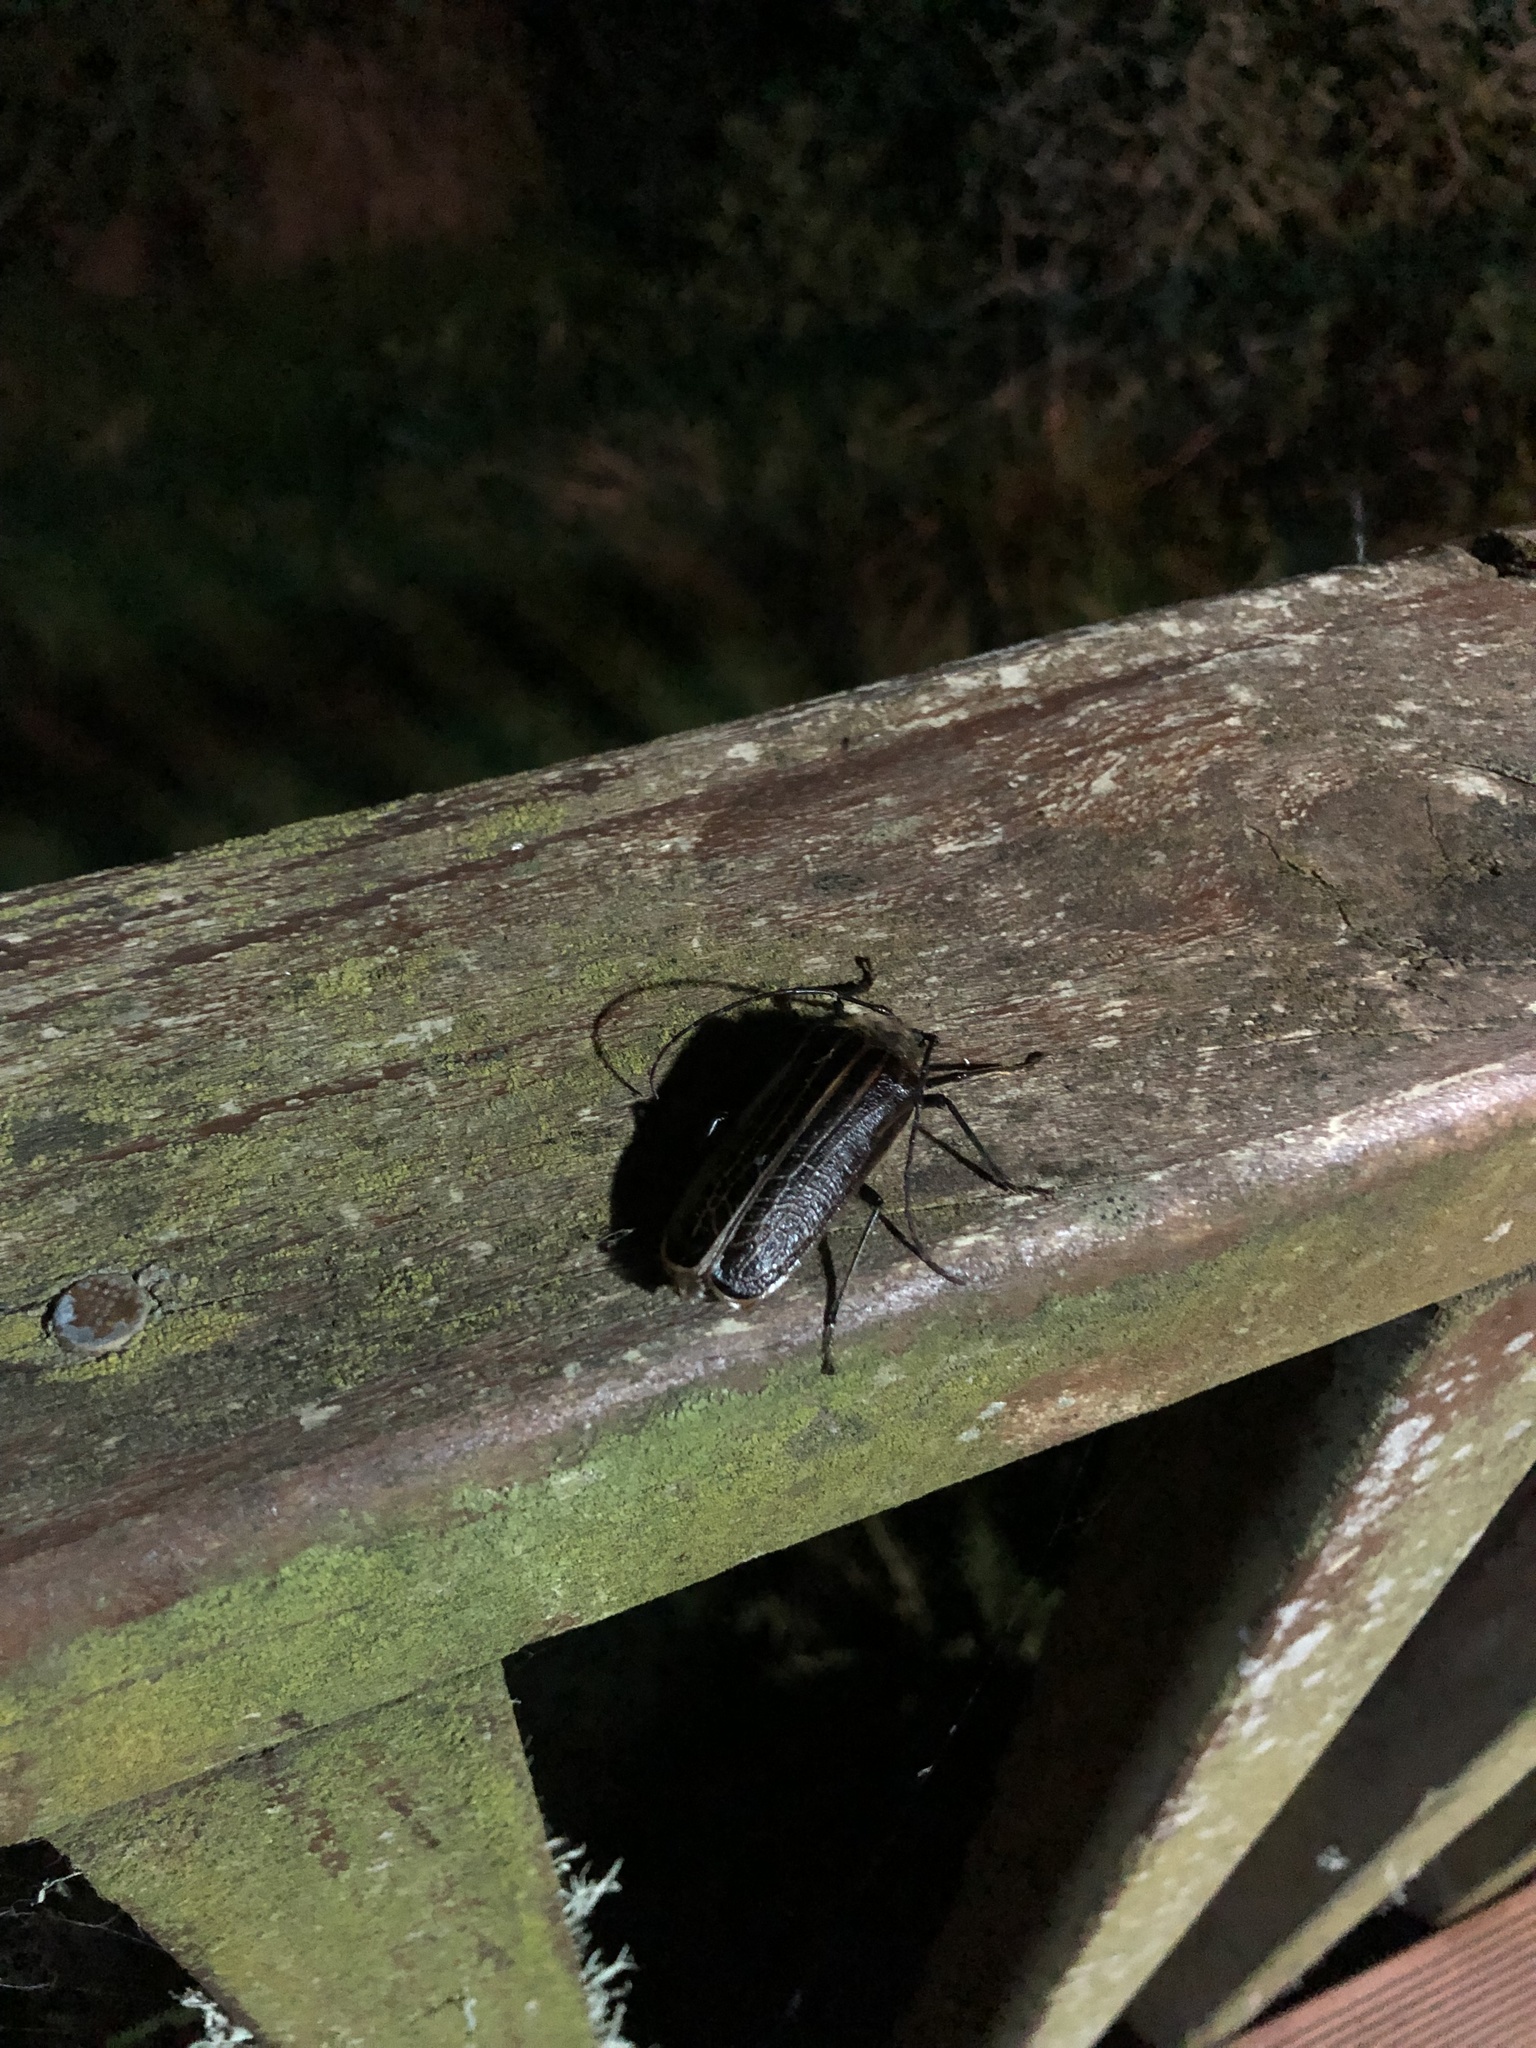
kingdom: Animalia
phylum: Arthropoda
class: Insecta
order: Coleoptera
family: Cerambycidae
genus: Prionoplus
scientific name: Prionoplus reticularis
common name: Huhu beetle
